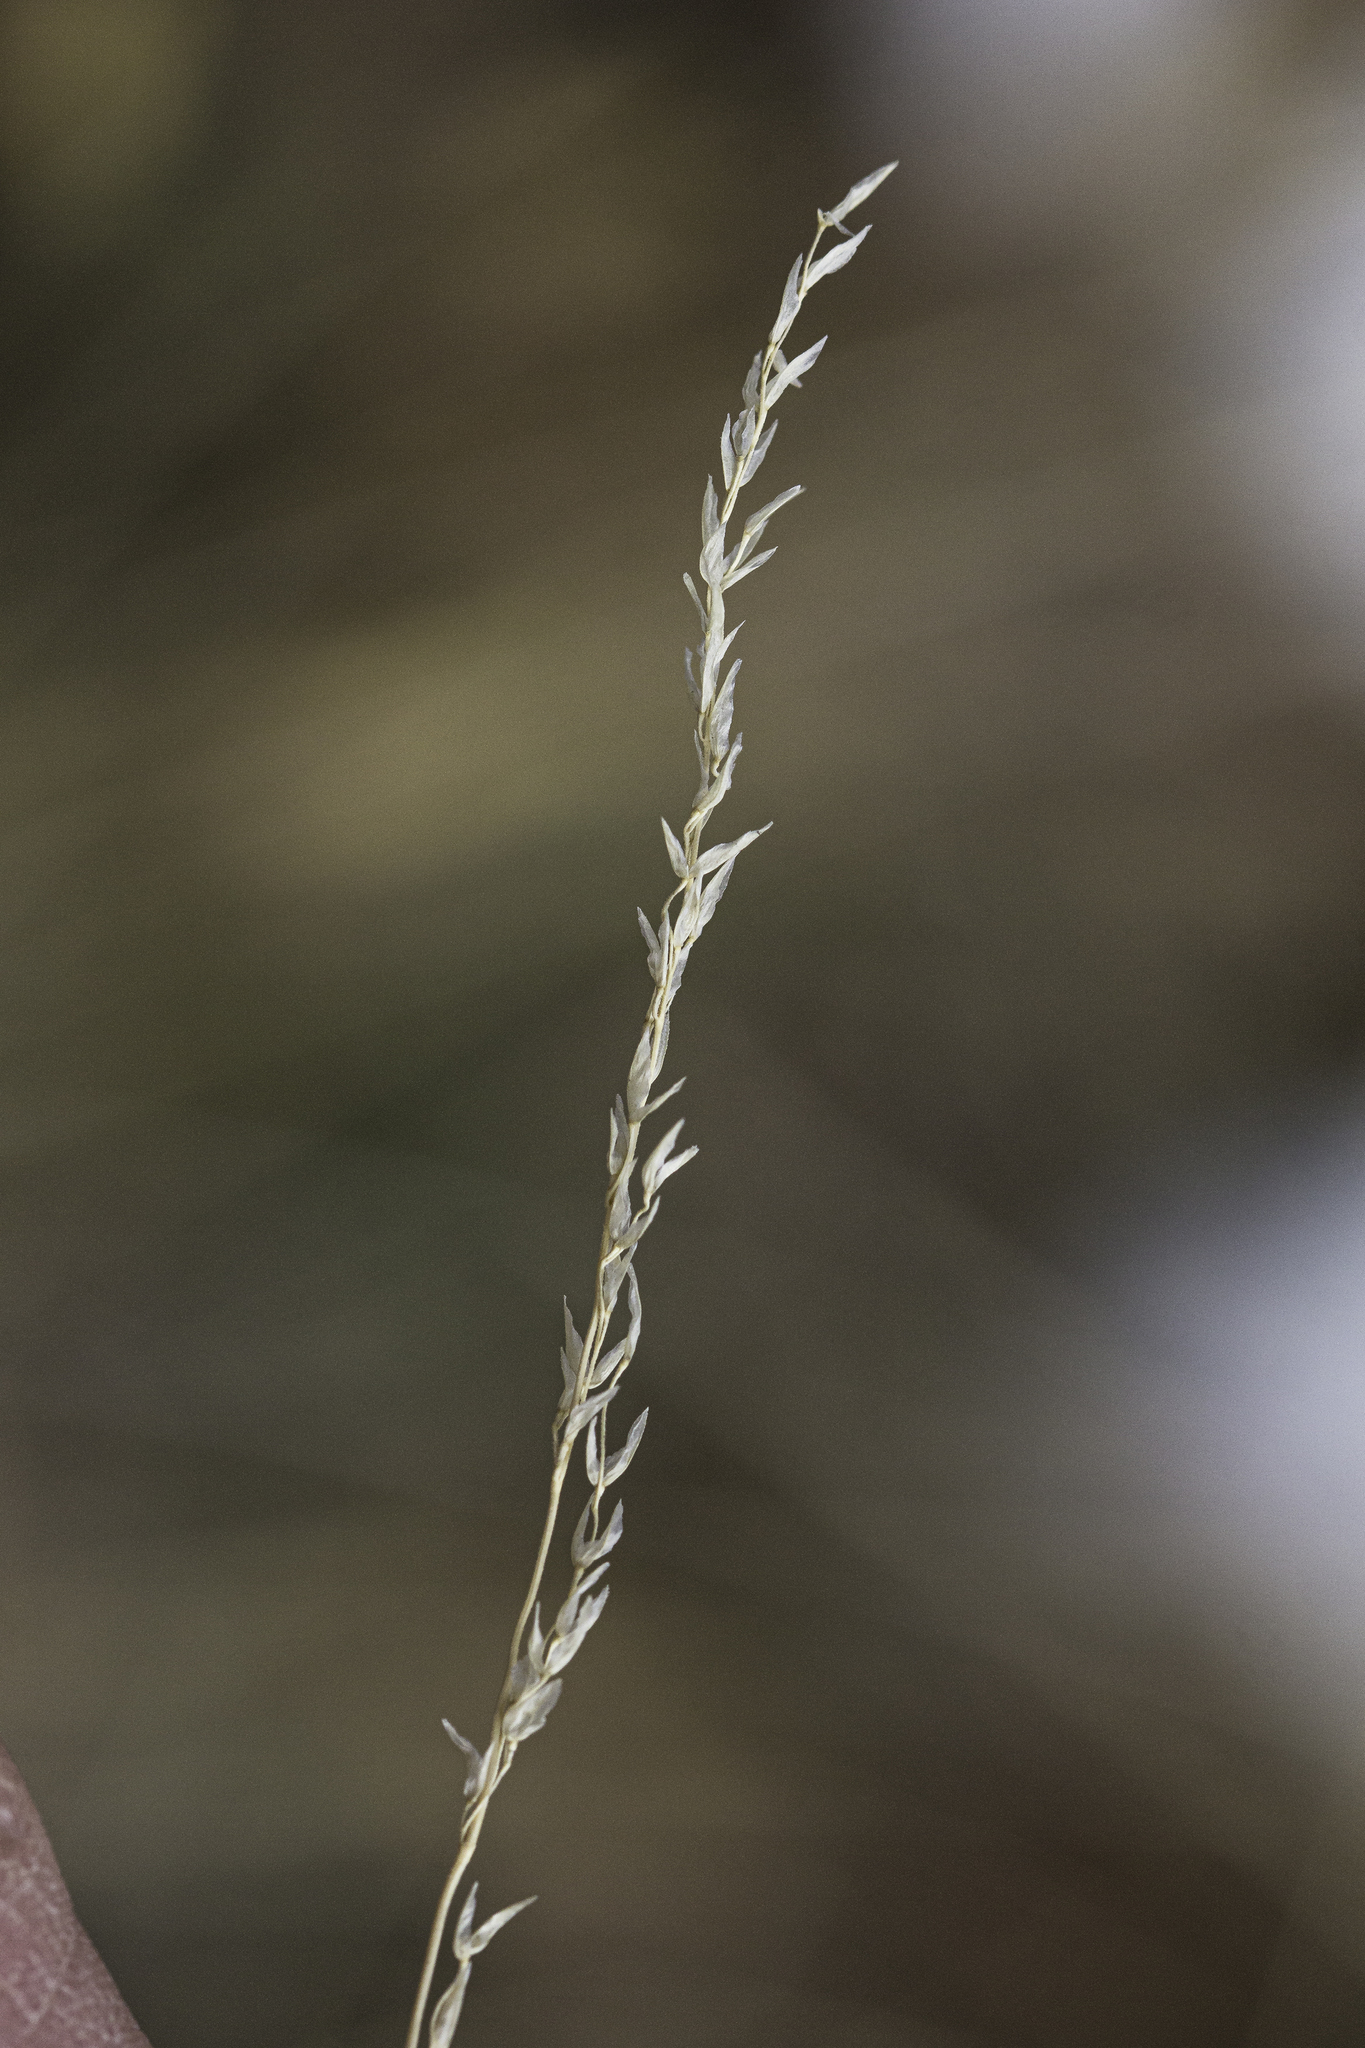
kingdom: Plantae
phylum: Tracheophyta
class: Liliopsida
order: Poales
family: Poaceae
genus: Poa
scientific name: Poa fendleriana
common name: Mutton bluegrass
